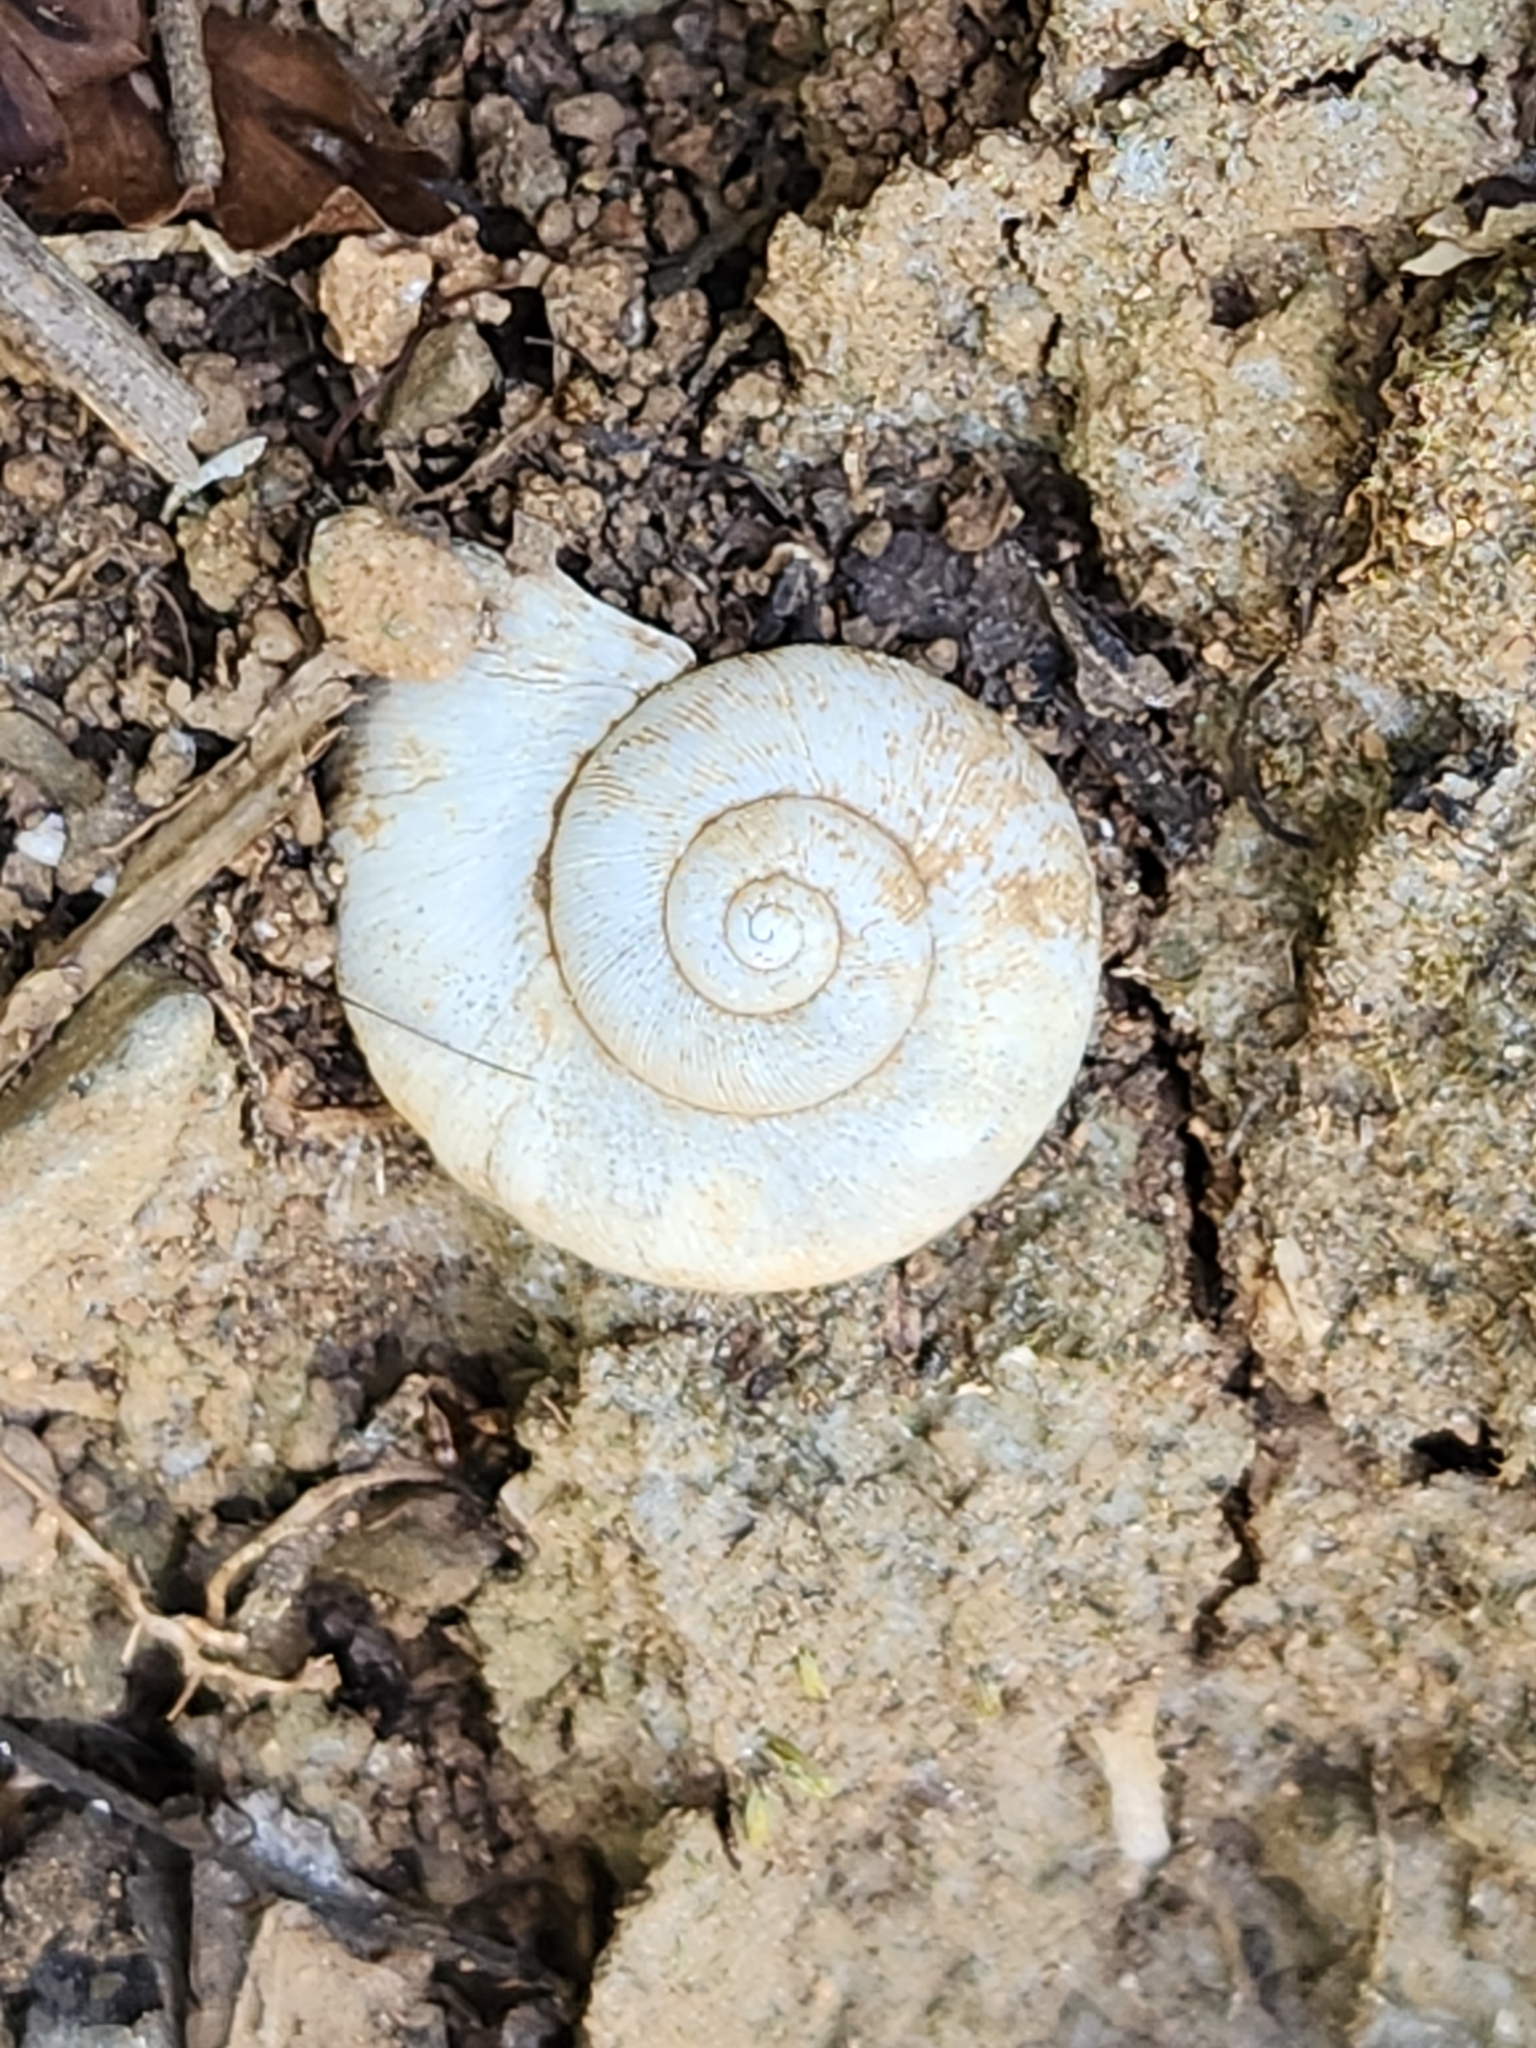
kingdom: Animalia
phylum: Mollusca
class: Gastropoda
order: Architaenioglossa
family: Neocyclotidae
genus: Neocyclotus
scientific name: Neocyclotus dysoni
